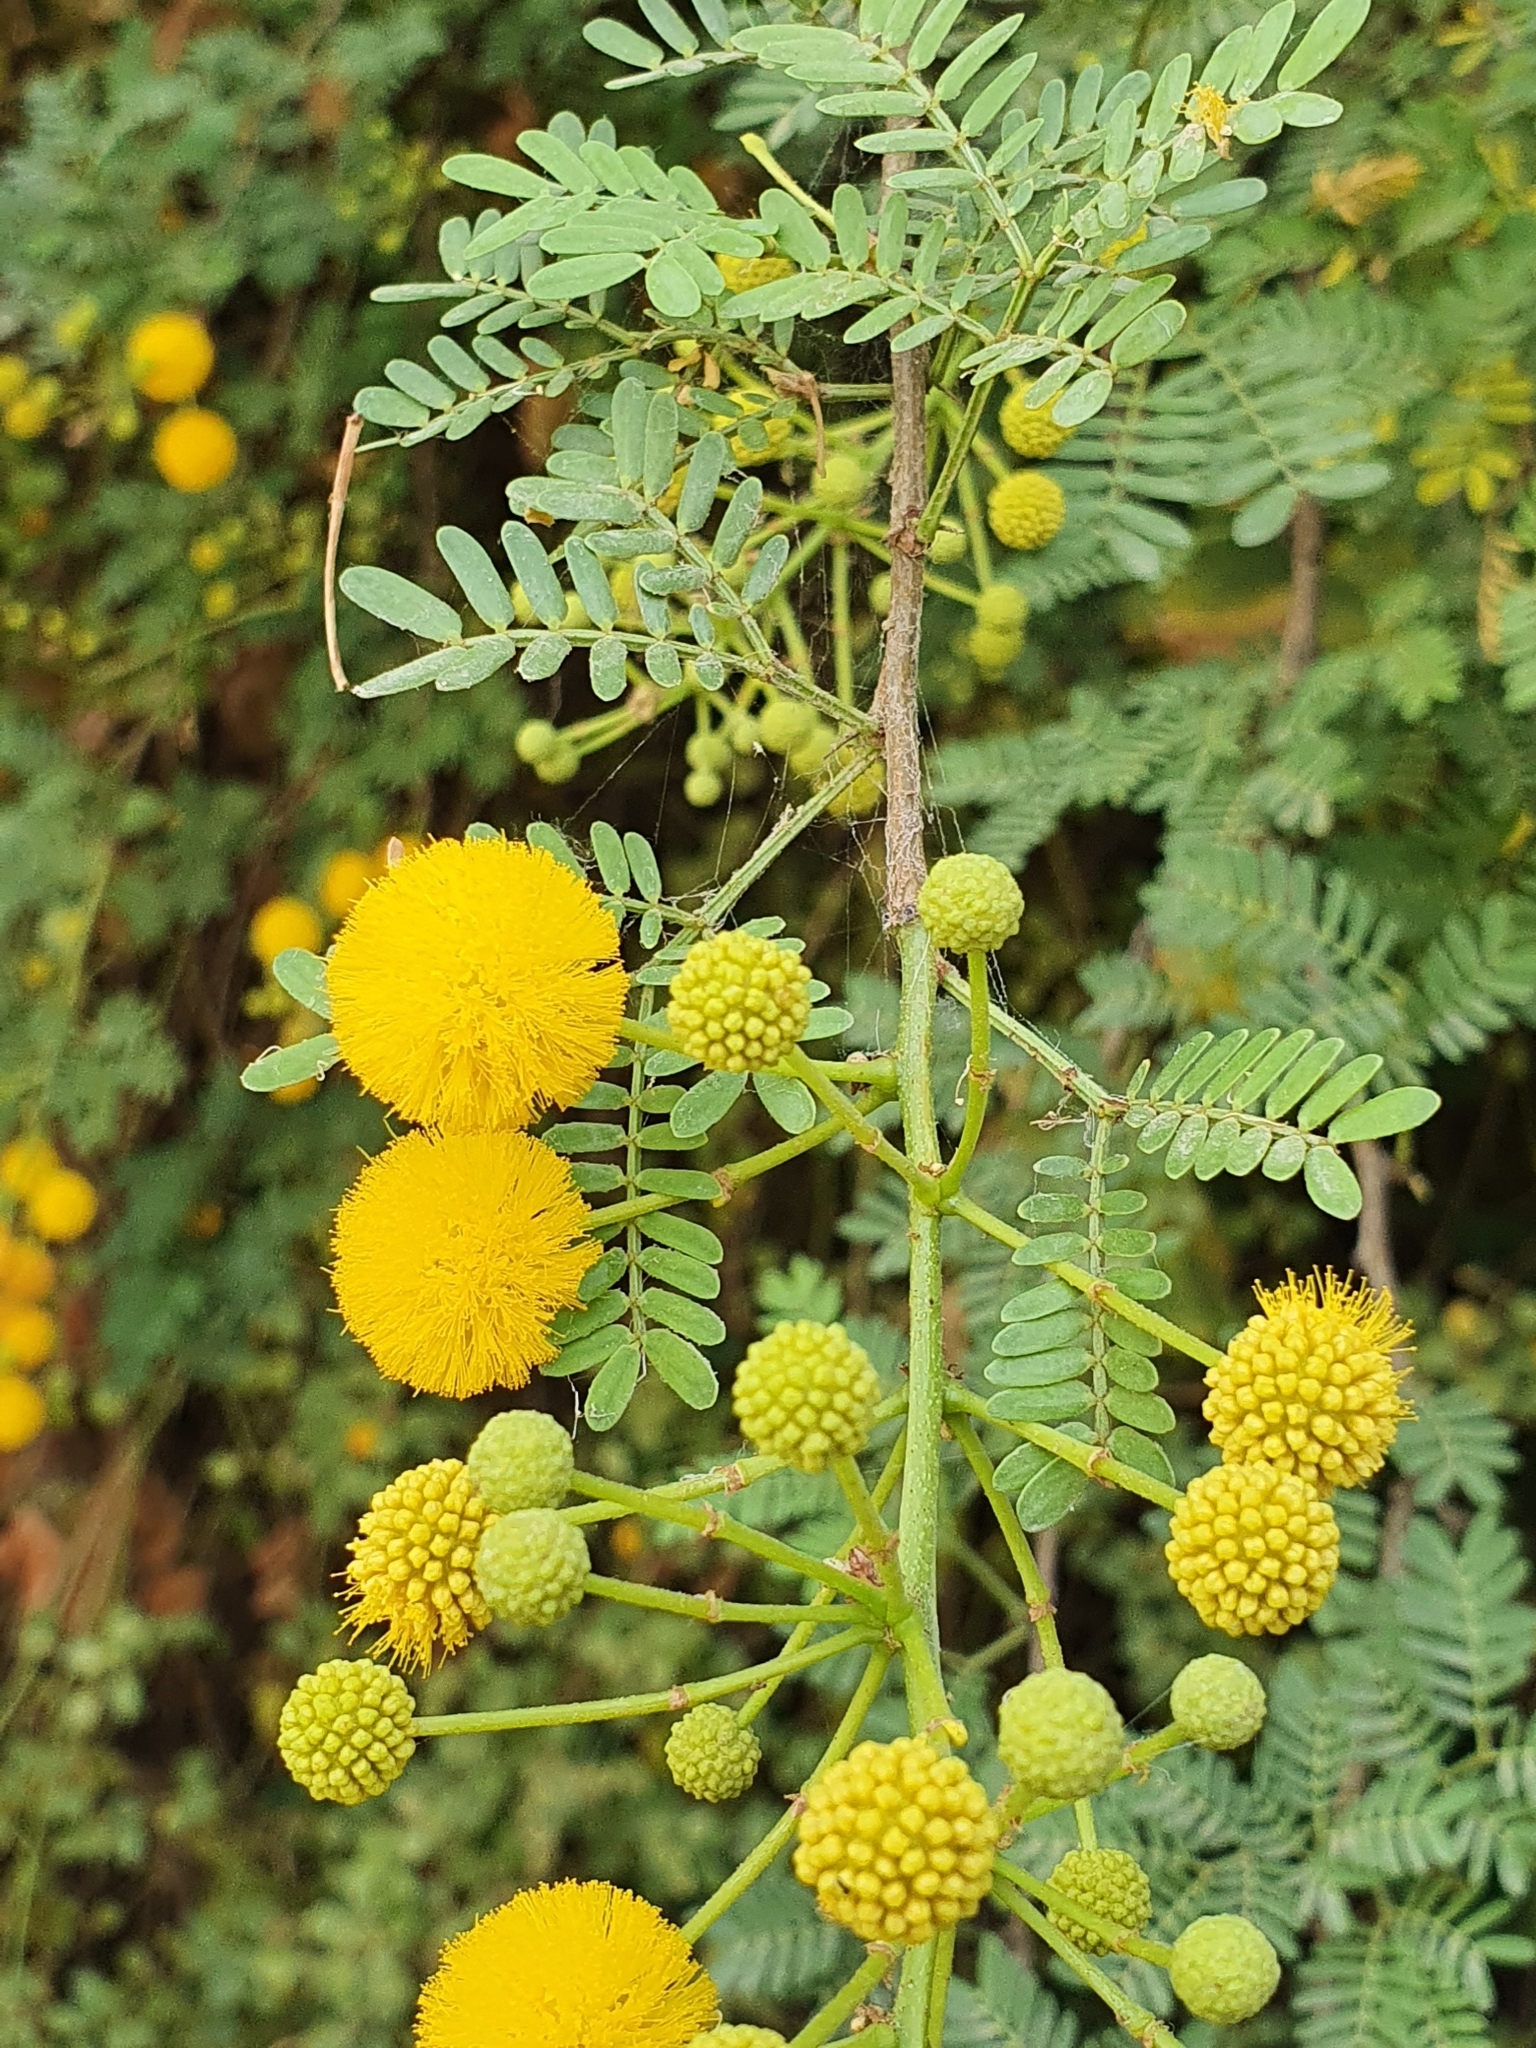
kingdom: Plantae
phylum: Tracheophyta
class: Magnoliopsida
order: Fabales
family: Fabaceae
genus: Vachellia
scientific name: Vachellia karroo
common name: Sweet thorn
